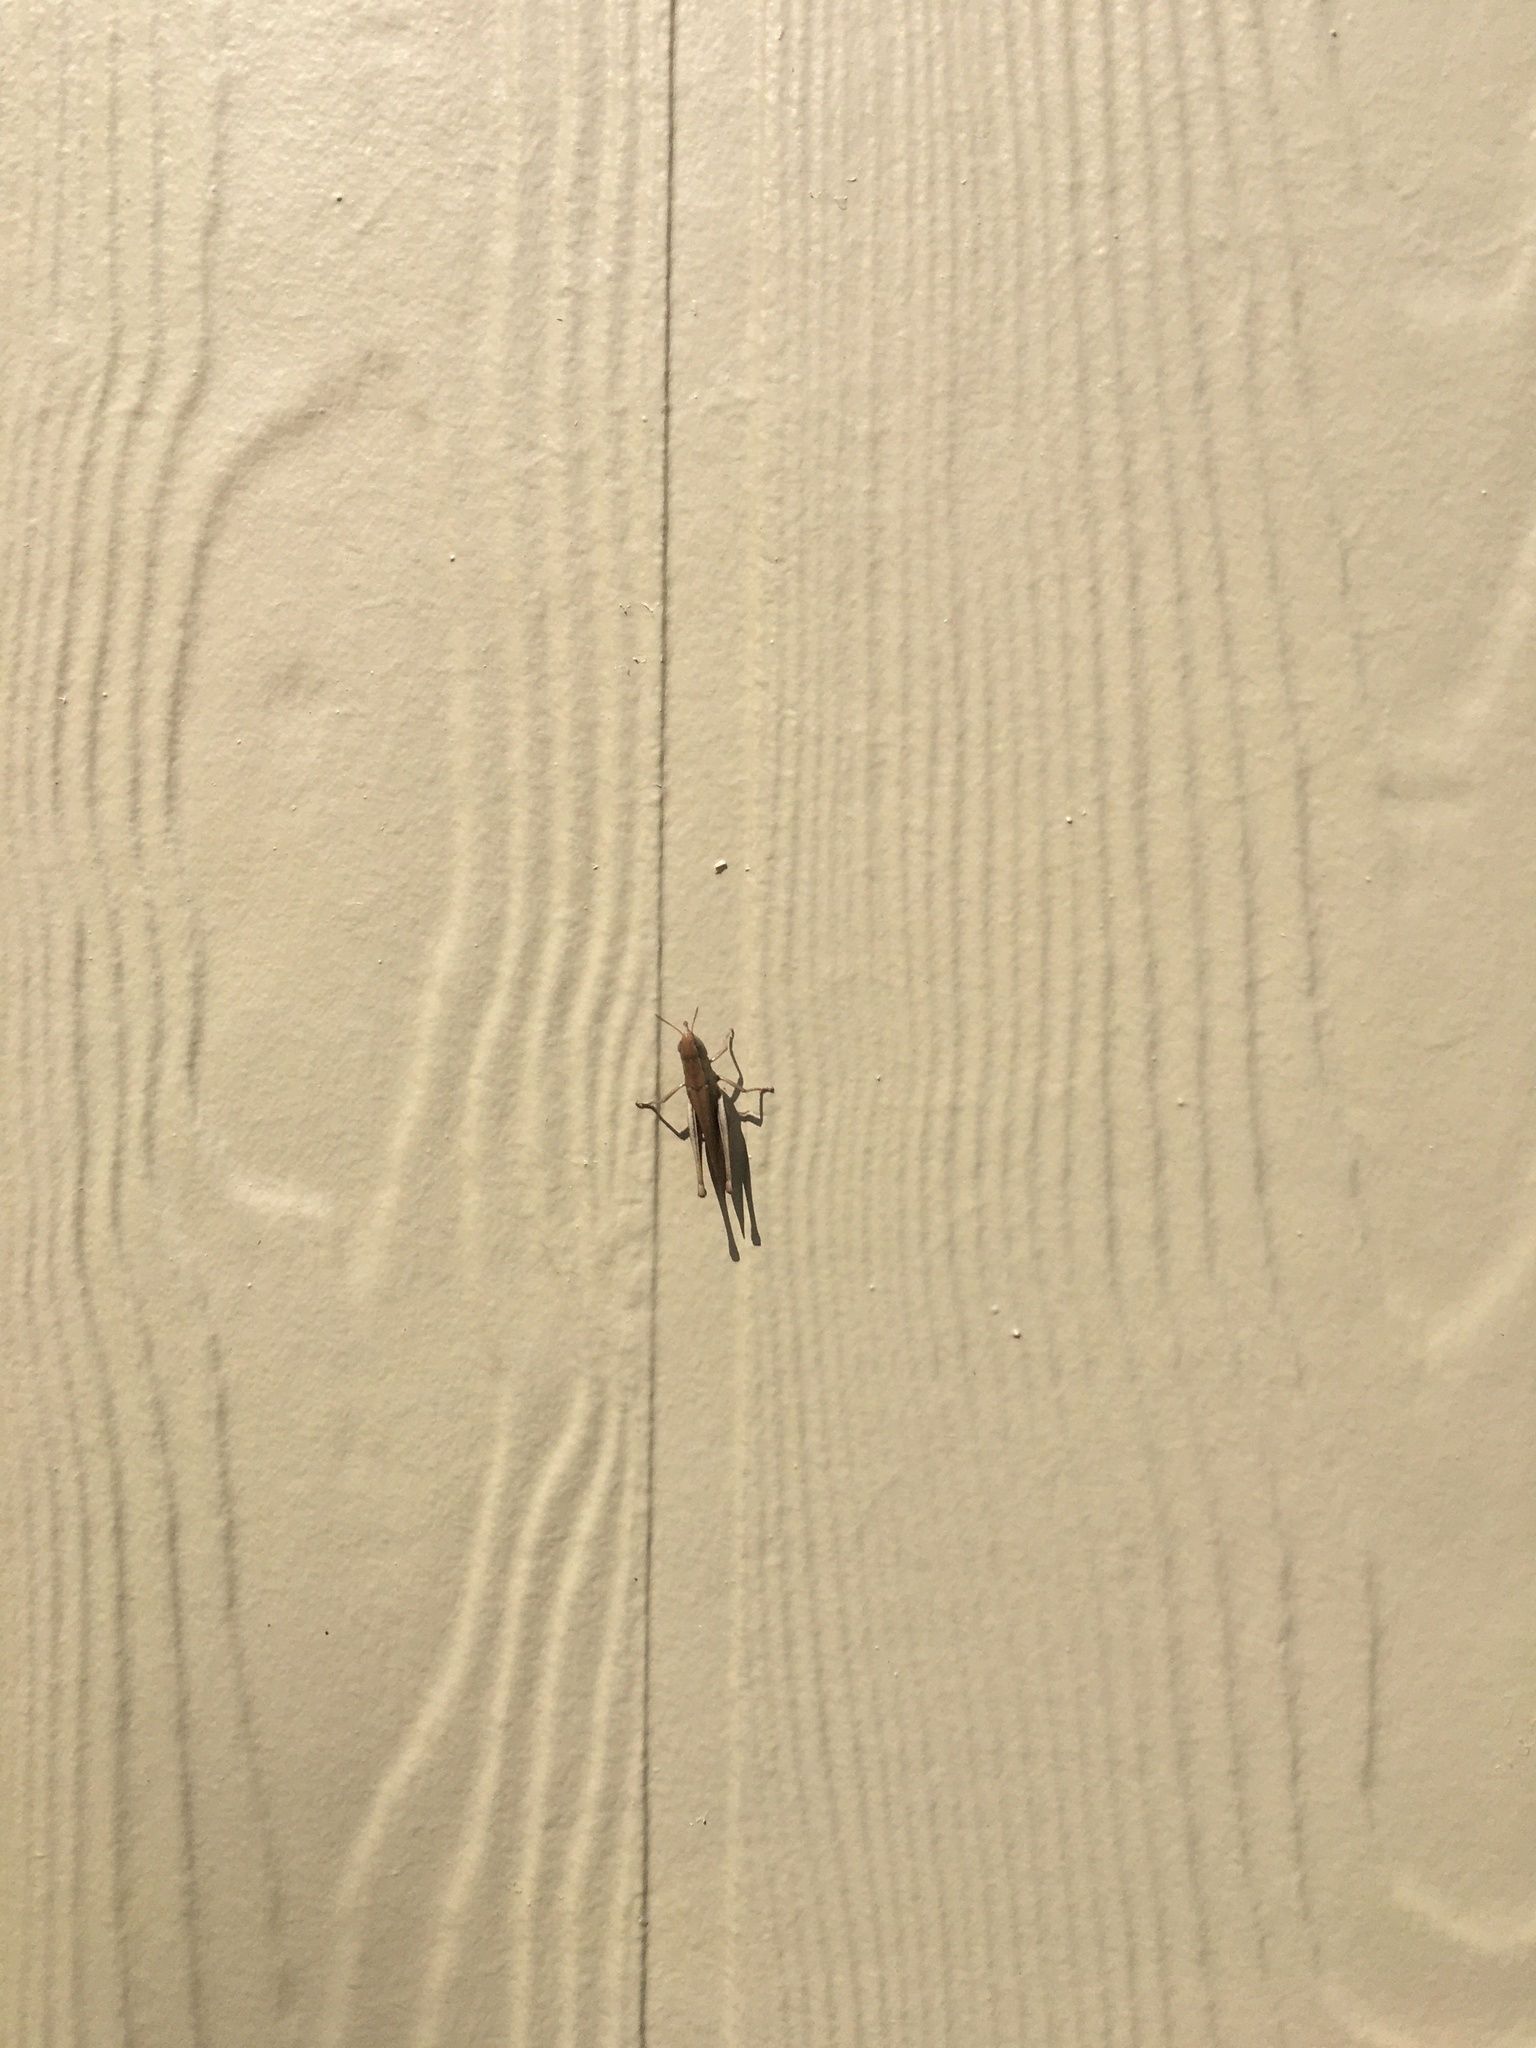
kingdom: Animalia
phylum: Arthropoda
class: Insecta
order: Orthoptera
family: Acrididae
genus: Amblytropidia
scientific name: Amblytropidia mysteca
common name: Brown winter grasshopper
